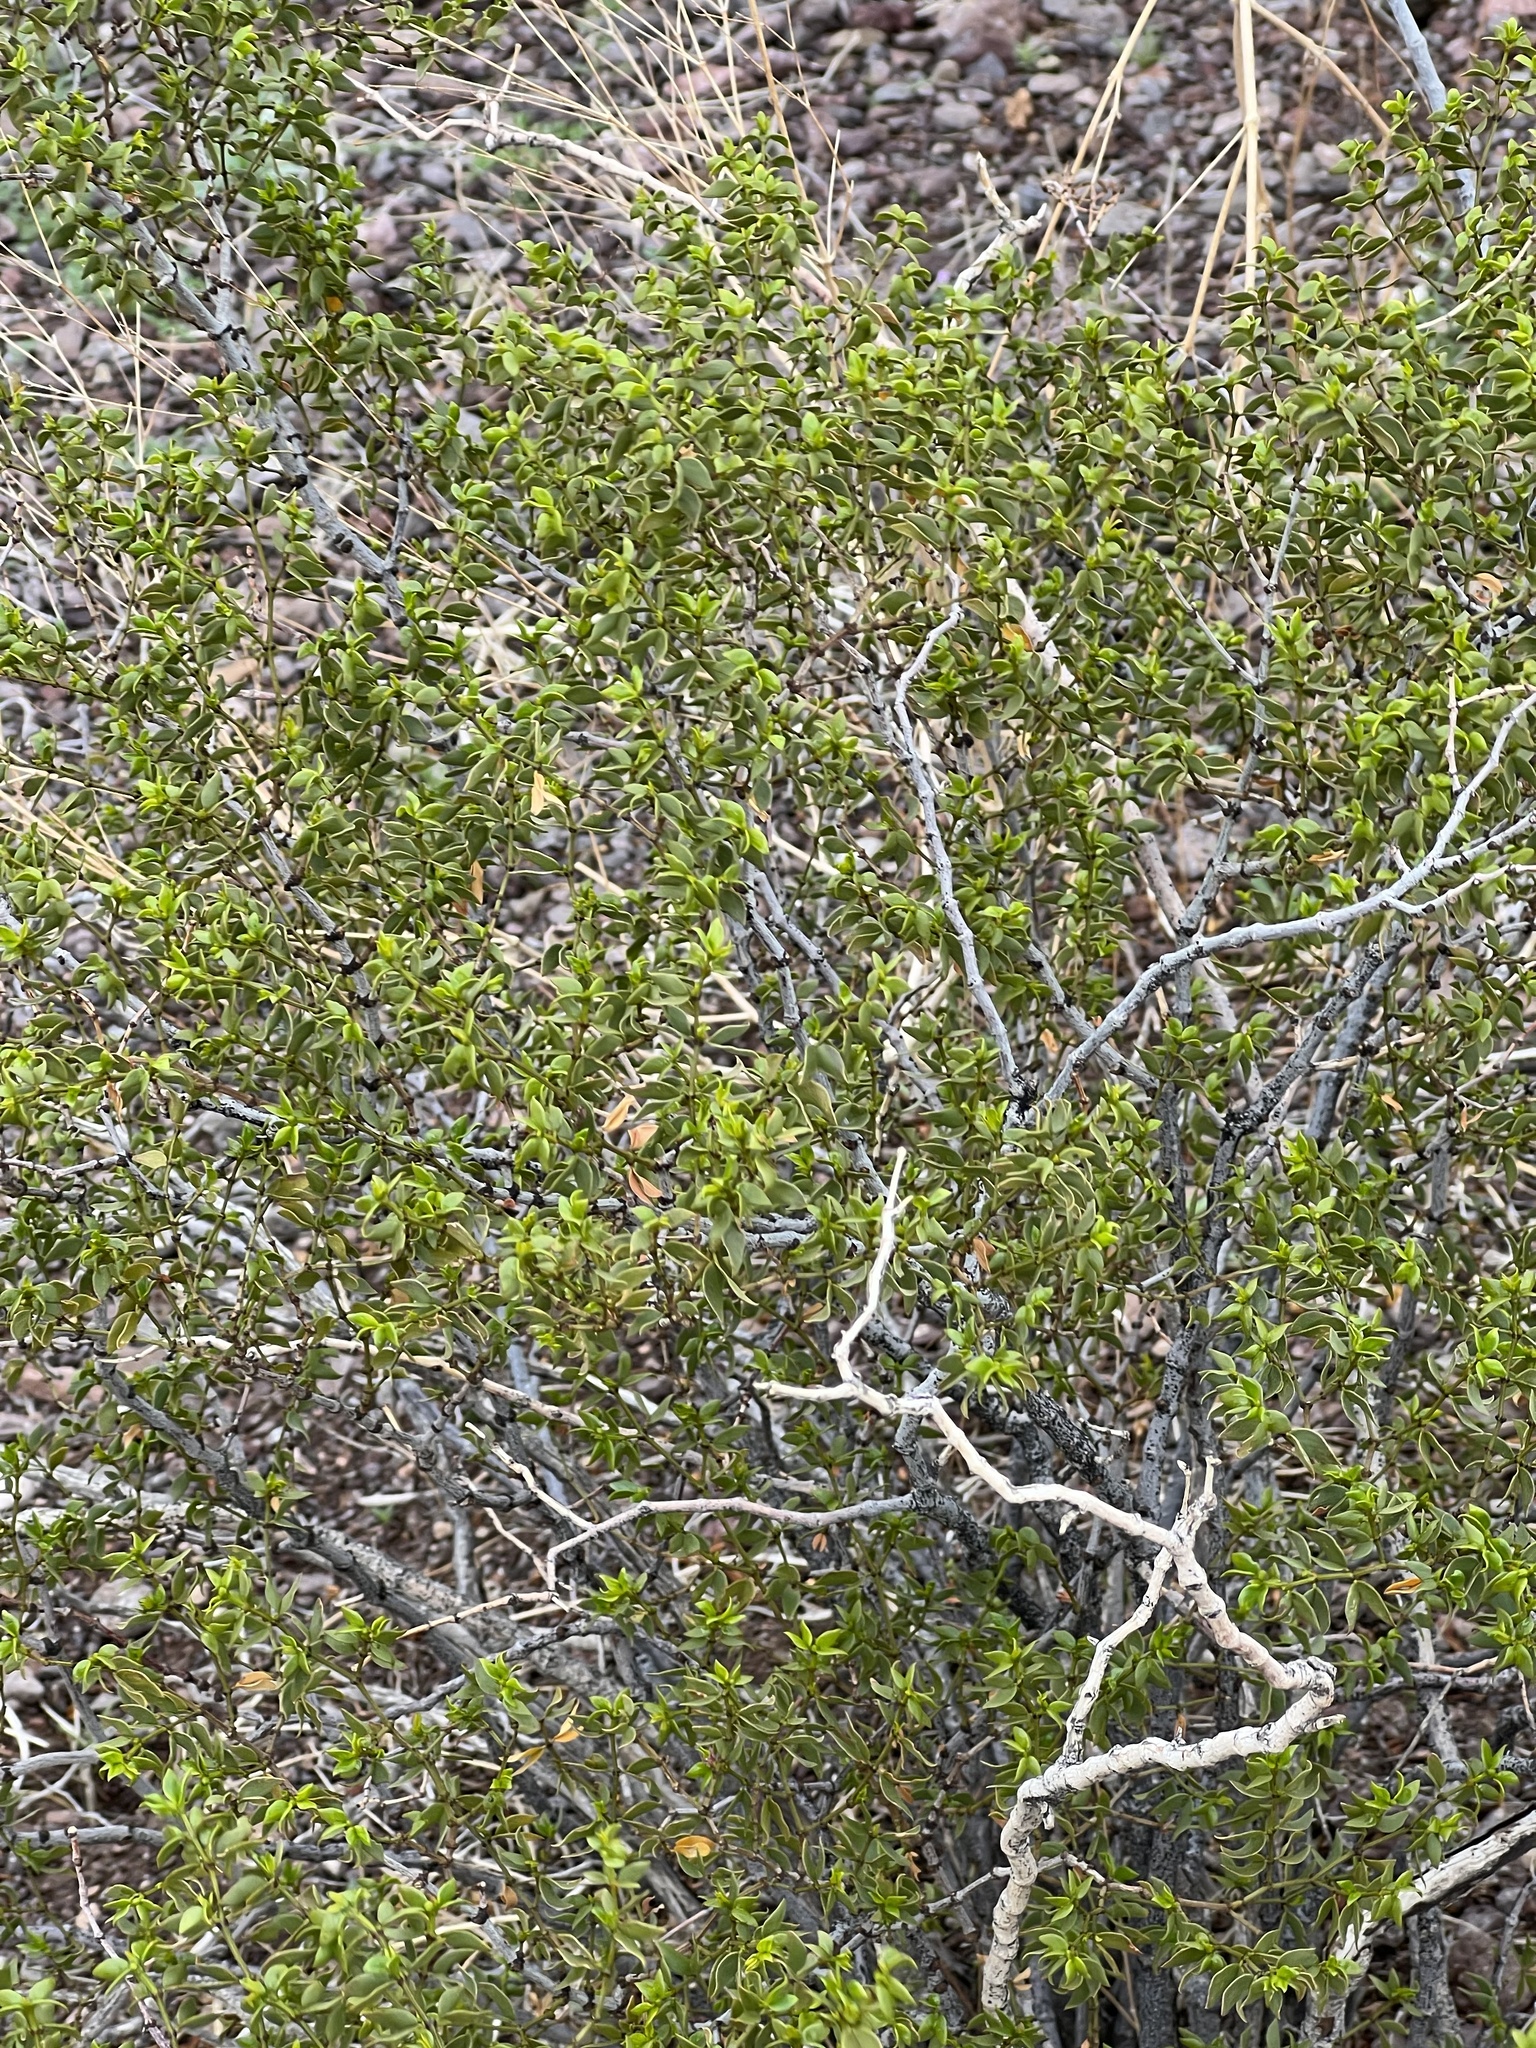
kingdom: Plantae
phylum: Tracheophyta
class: Magnoliopsida
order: Zygophyllales
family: Zygophyllaceae
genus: Larrea
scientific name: Larrea tridentata
